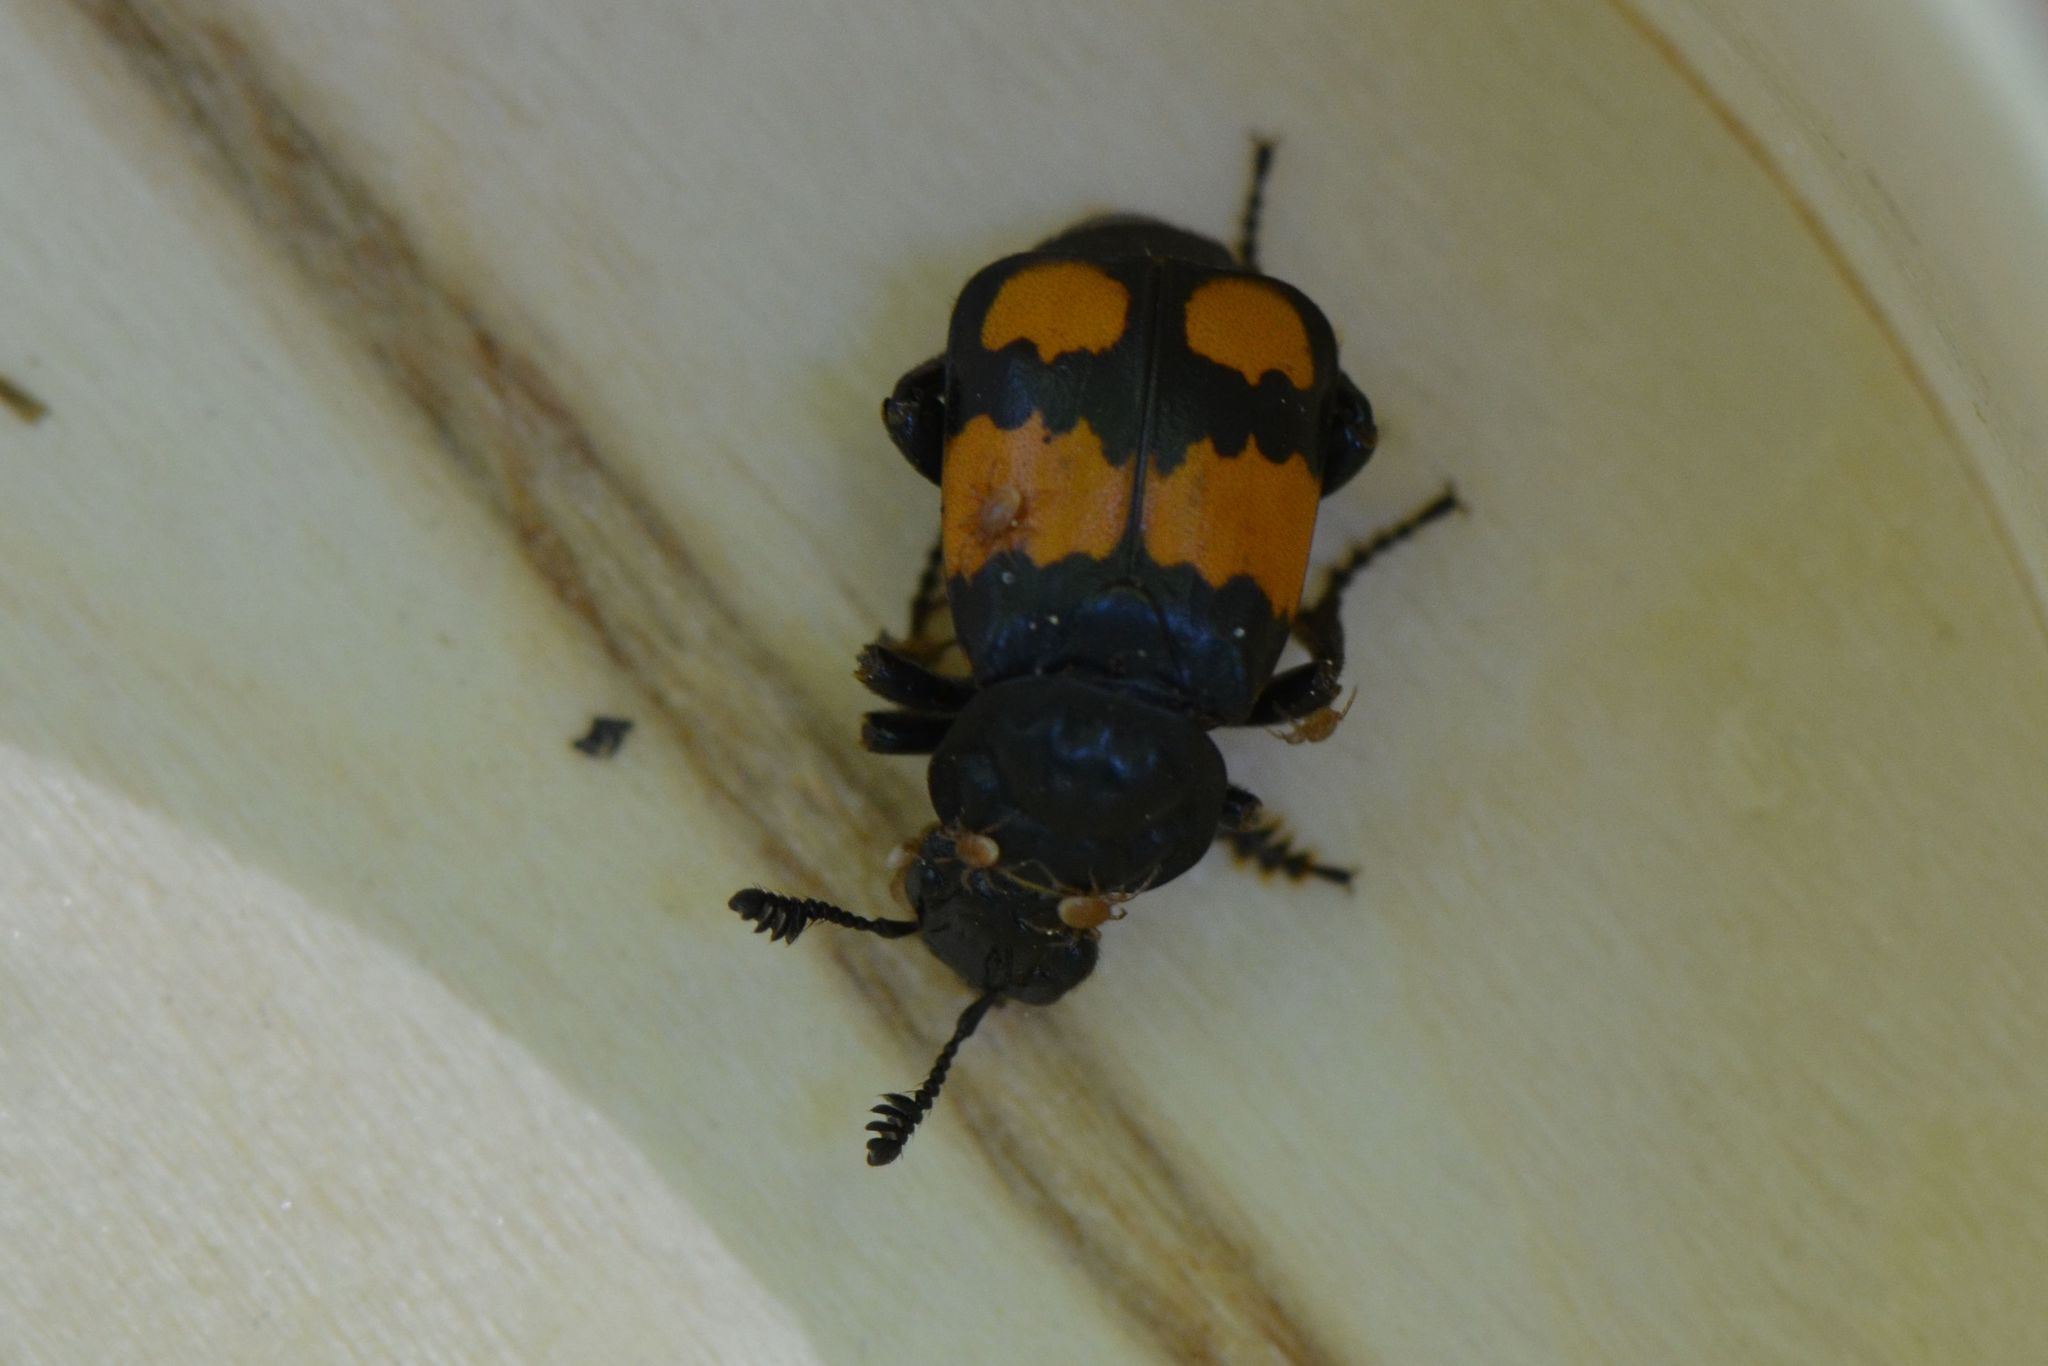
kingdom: Animalia
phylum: Arthropoda
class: Insecta
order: Coleoptera
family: Staphylinidae
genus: Nicrophorus
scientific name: Nicrophorus vespilloides
